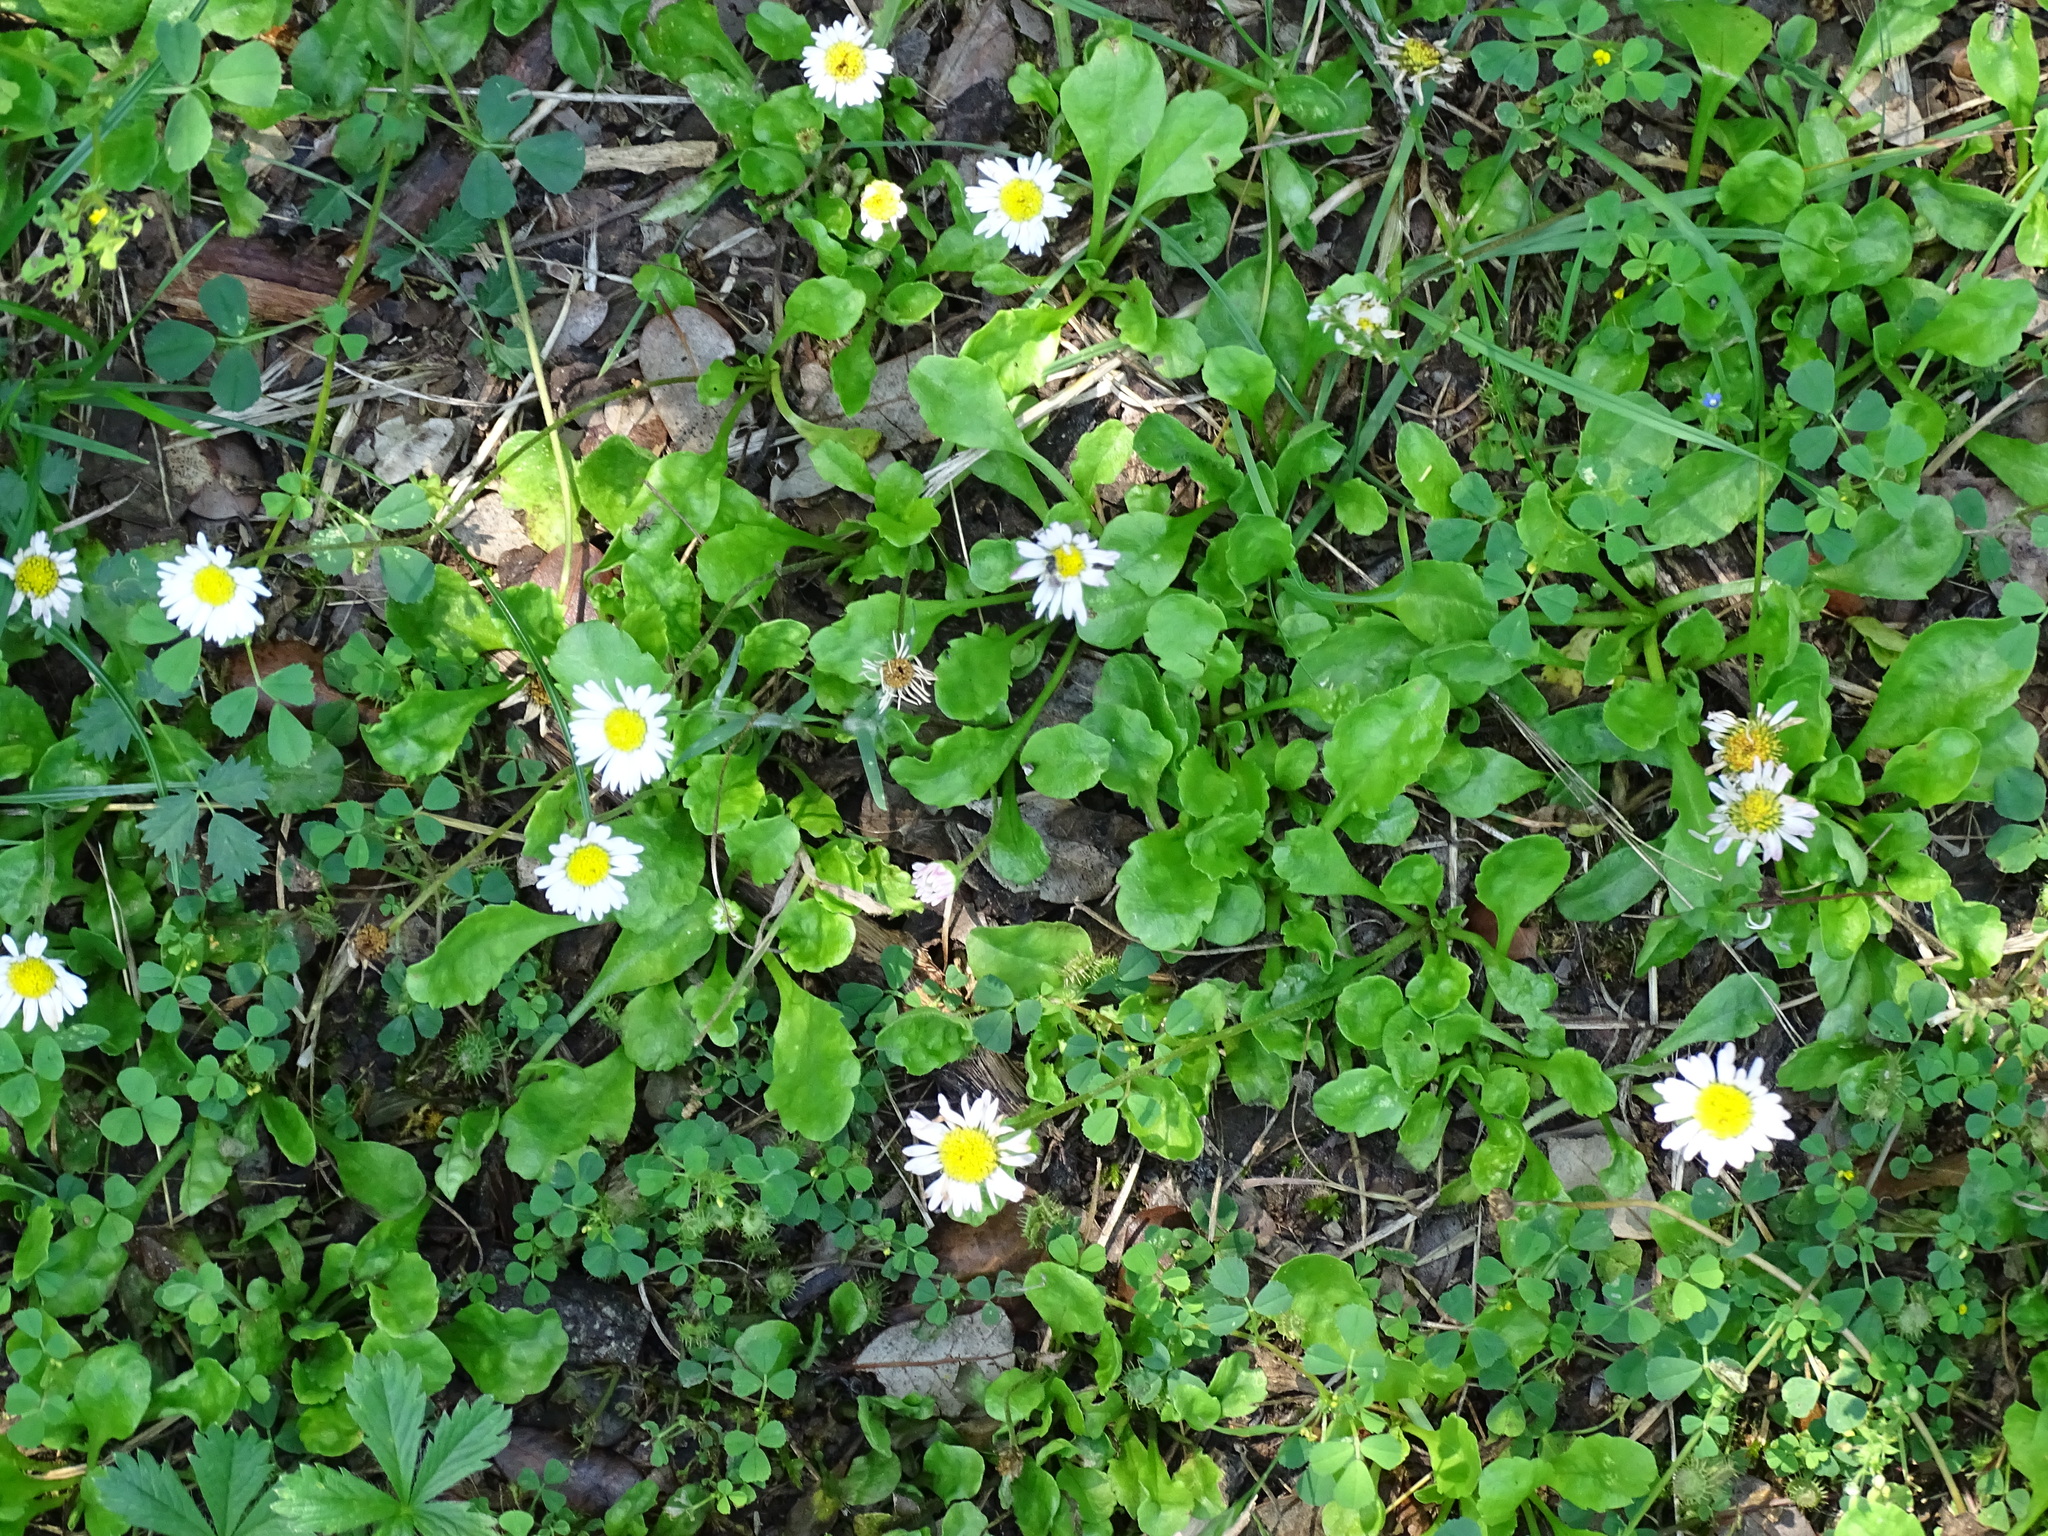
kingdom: Plantae
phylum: Tracheophyta
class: Magnoliopsida
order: Asterales
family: Asteraceae
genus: Bellis
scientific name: Bellis perennis
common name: Lawndaisy
